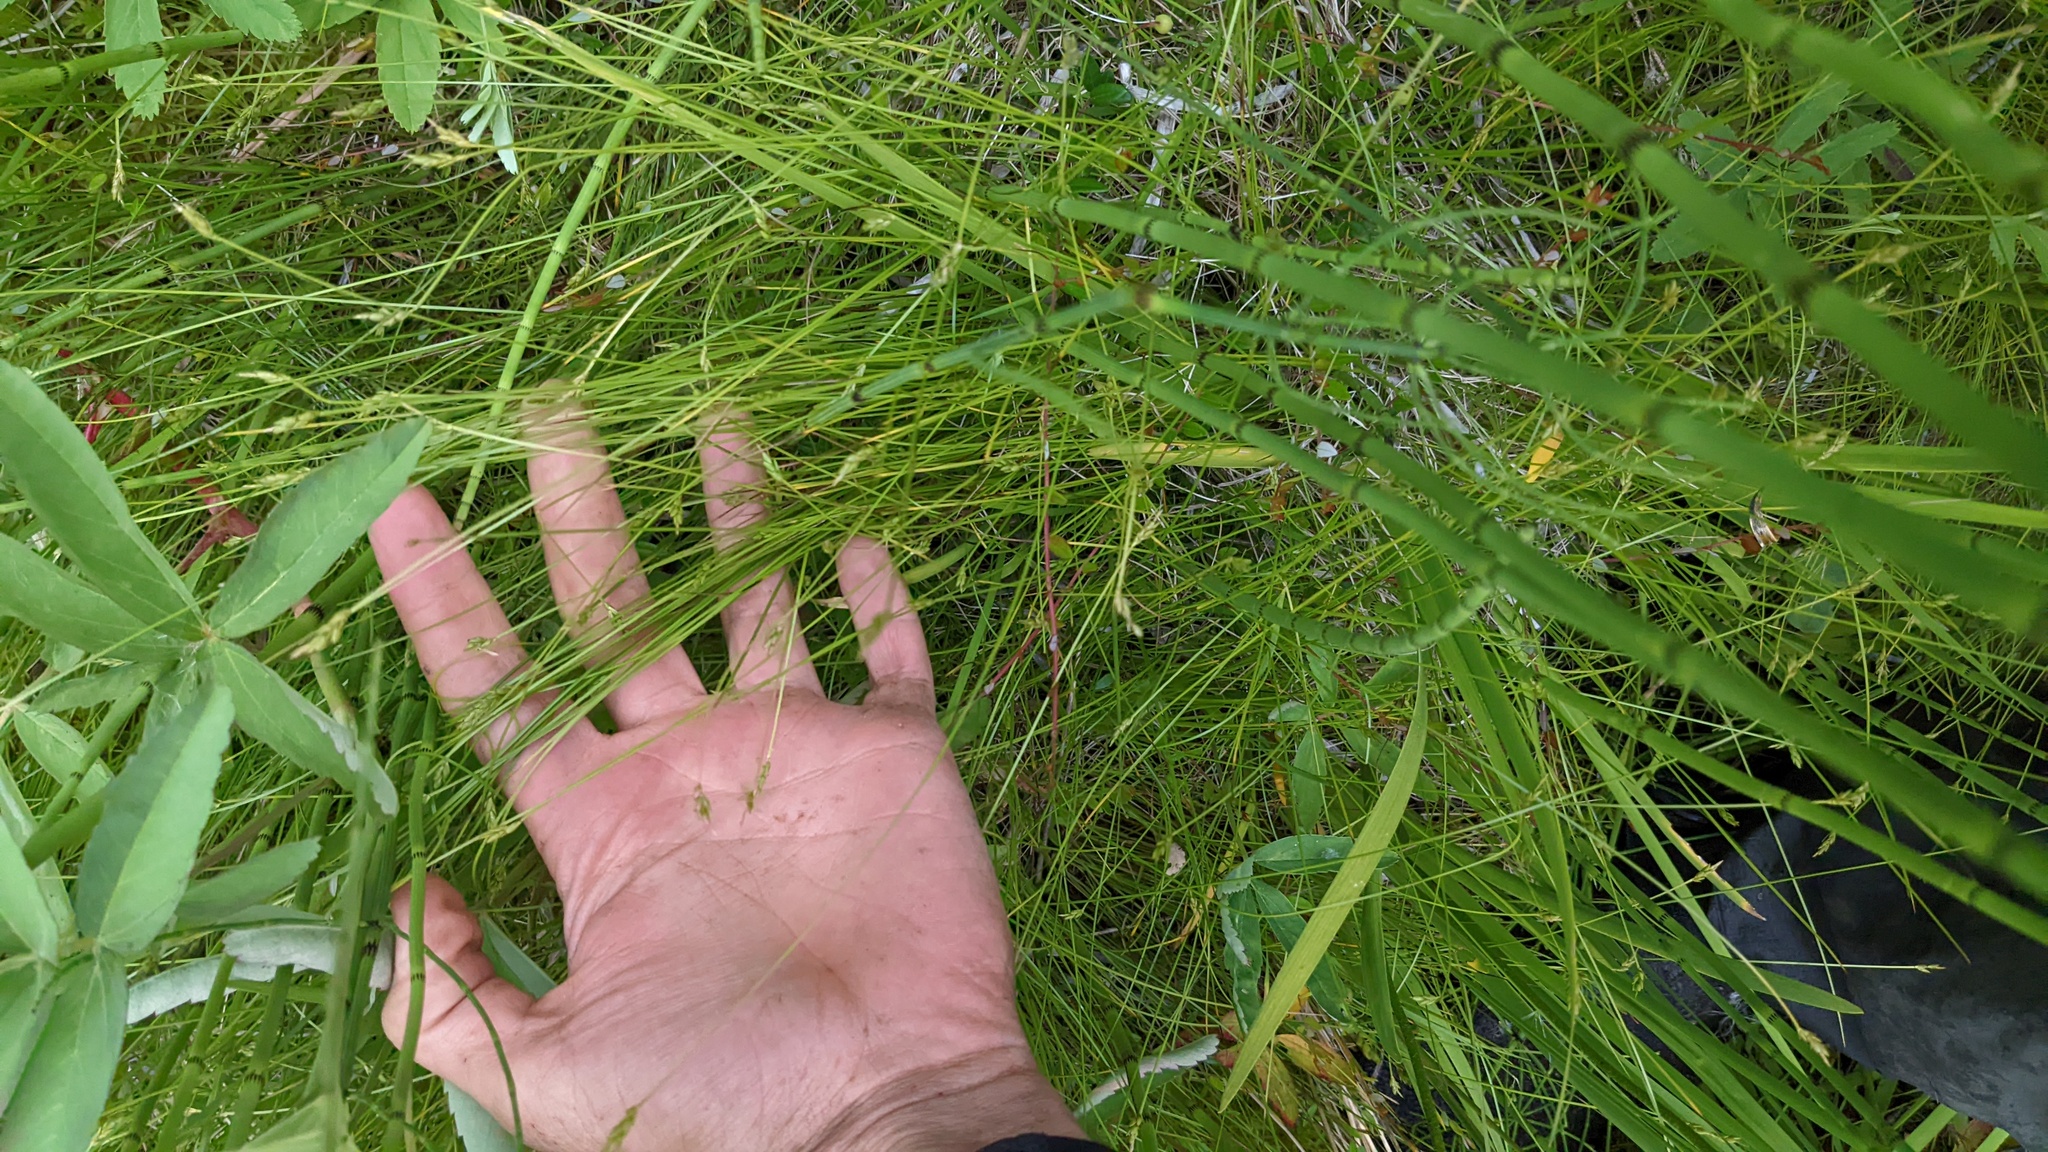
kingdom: Plantae
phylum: Tracheophyta
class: Liliopsida
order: Poales
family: Cyperaceae
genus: Carex
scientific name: Carex leptalea
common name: Bristly-stalked sedge
